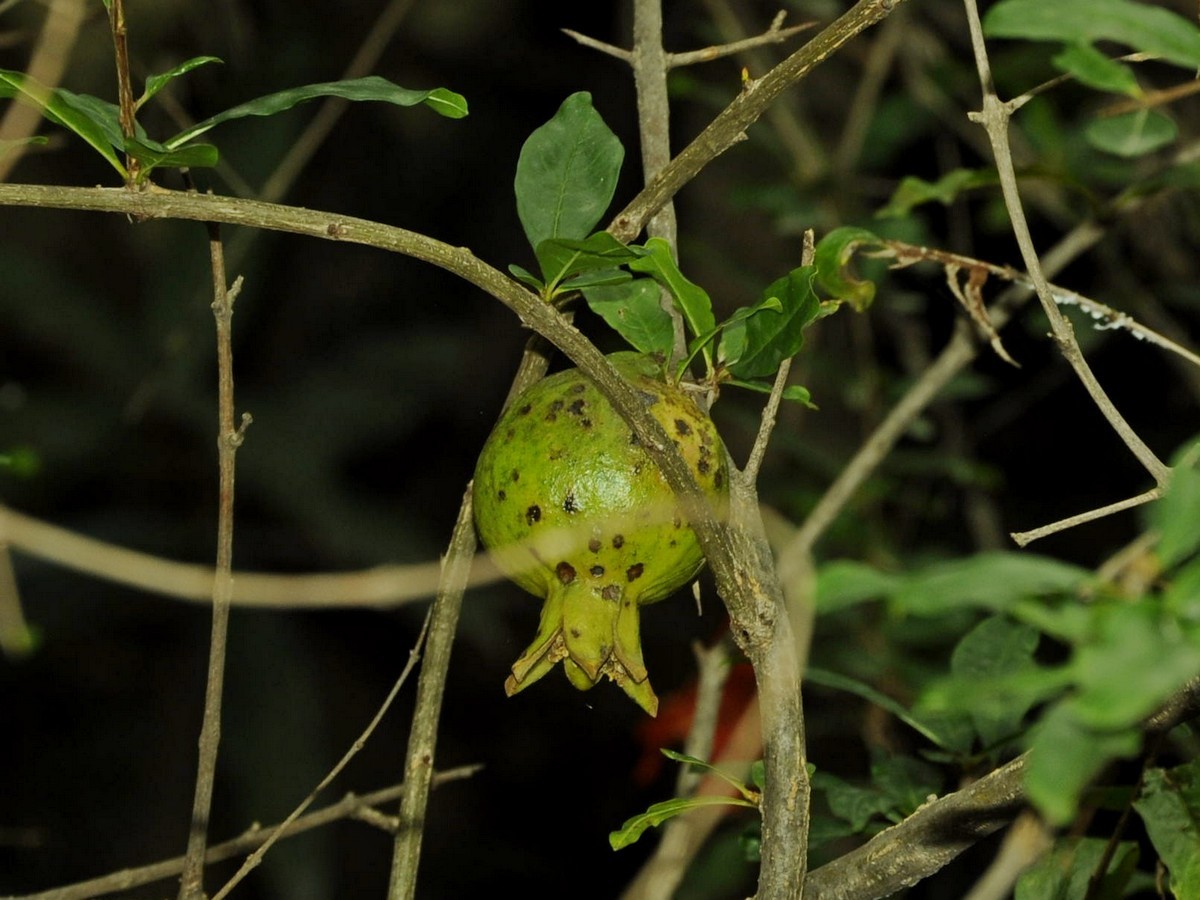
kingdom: Plantae
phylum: Tracheophyta
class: Magnoliopsida
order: Myrtales
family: Lythraceae
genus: Punica
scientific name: Punica granatum
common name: Pomegranate
